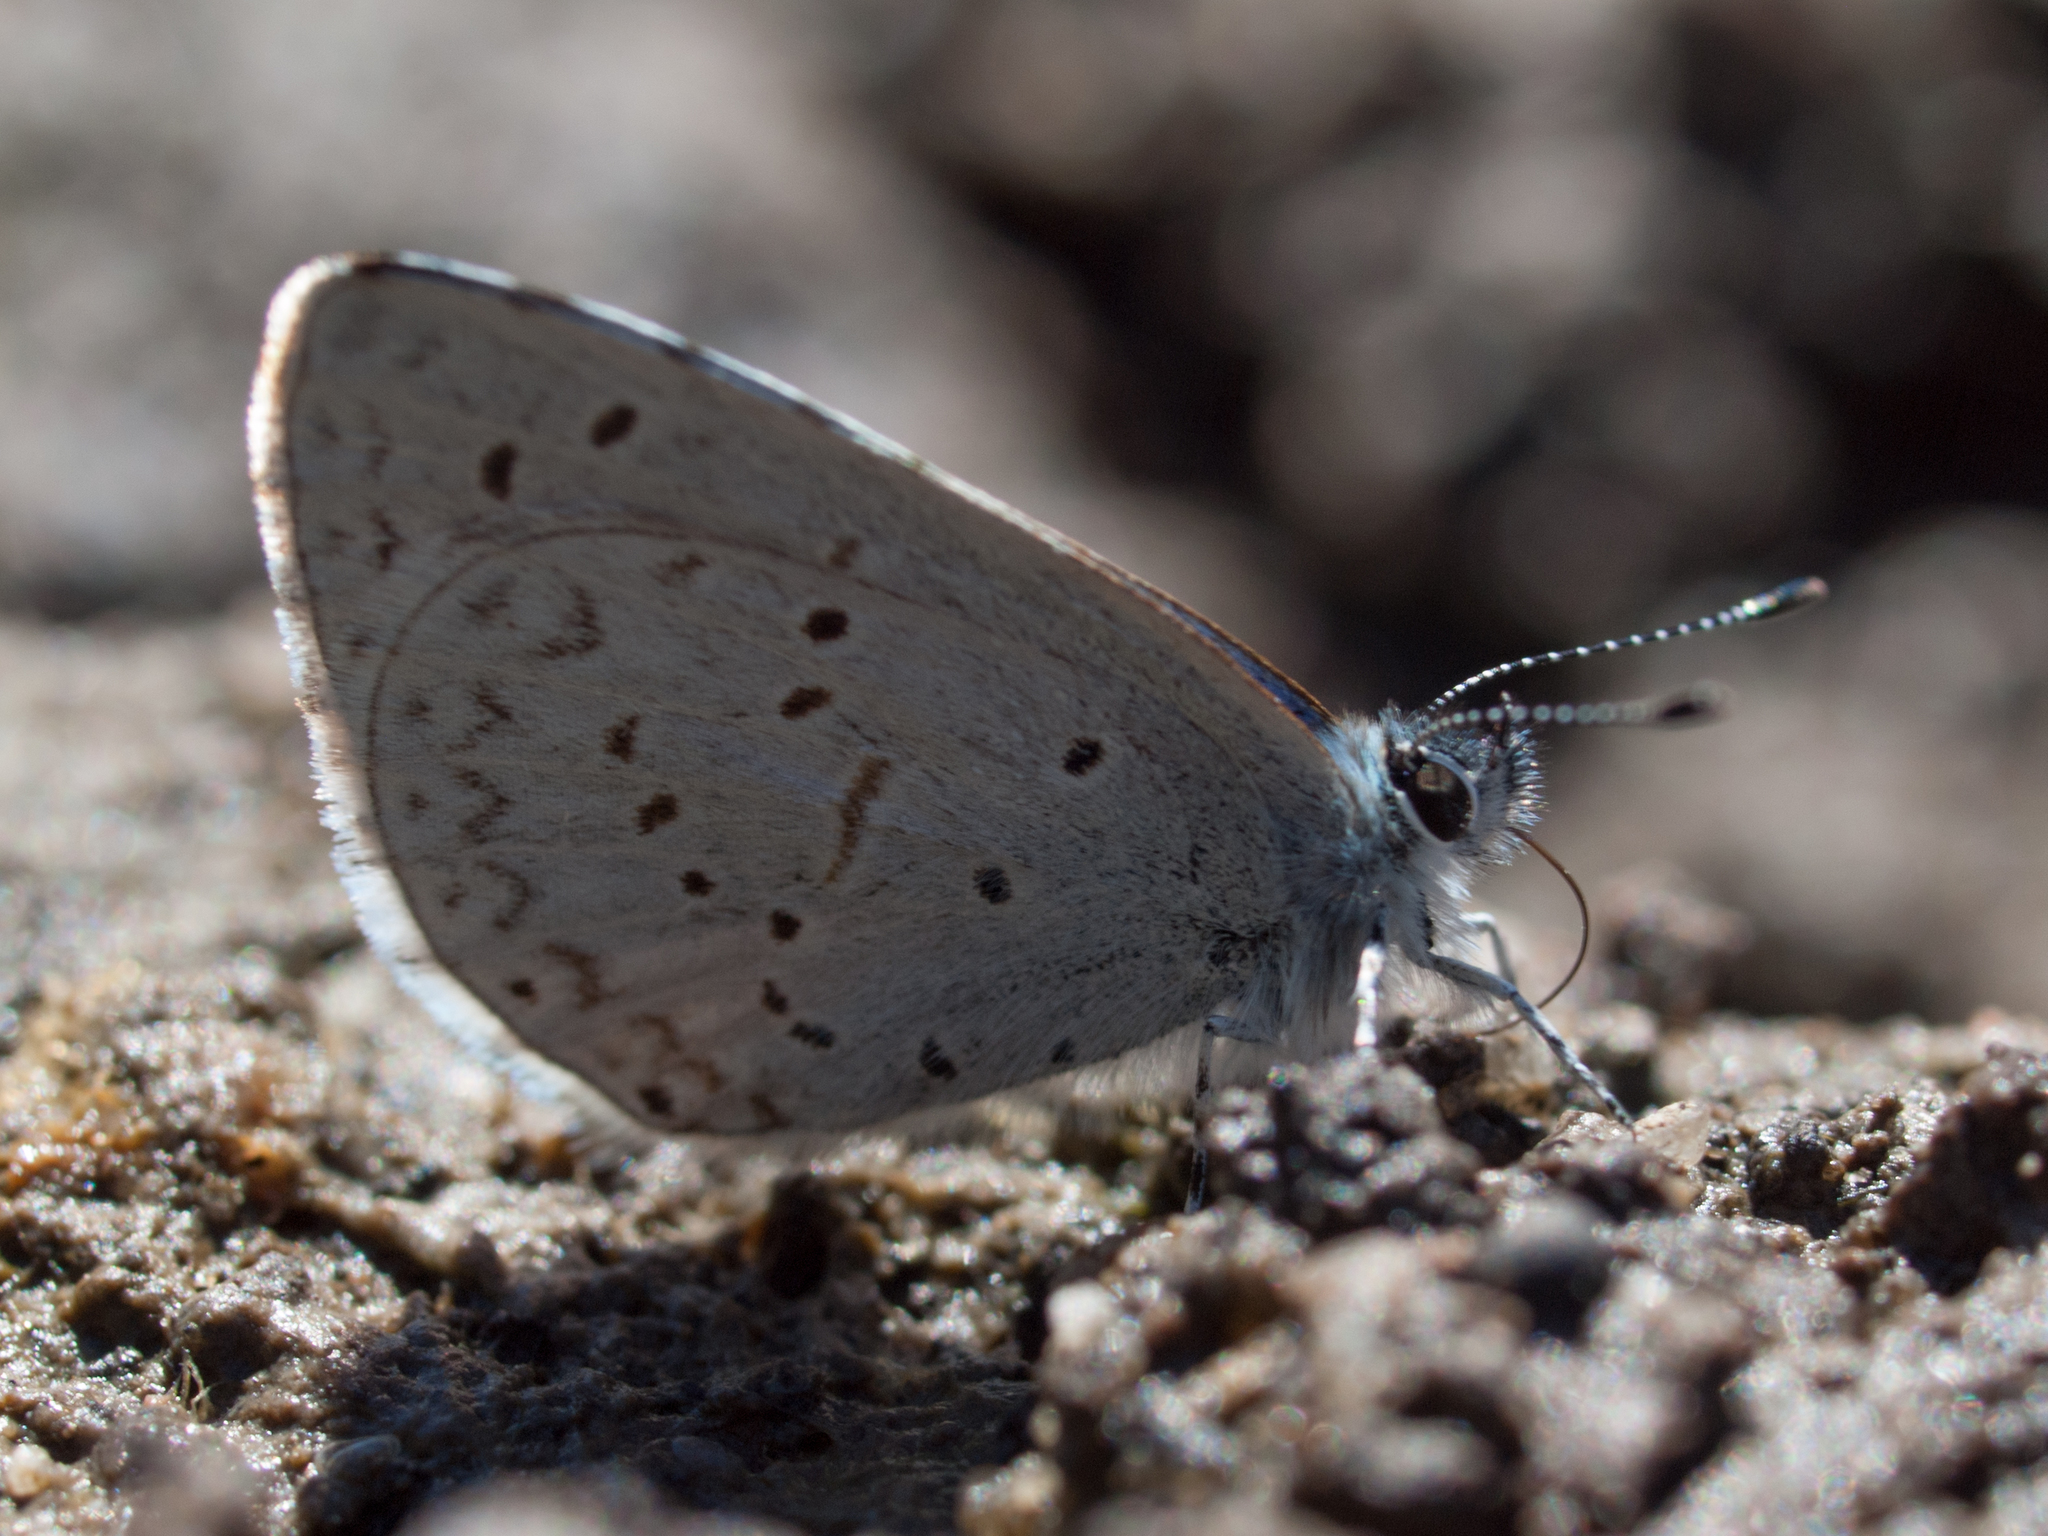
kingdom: Animalia
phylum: Arthropoda
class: Insecta
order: Lepidoptera
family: Lycaenidae
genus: Celastrina
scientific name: Celastrina ladon
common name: Spring azure
